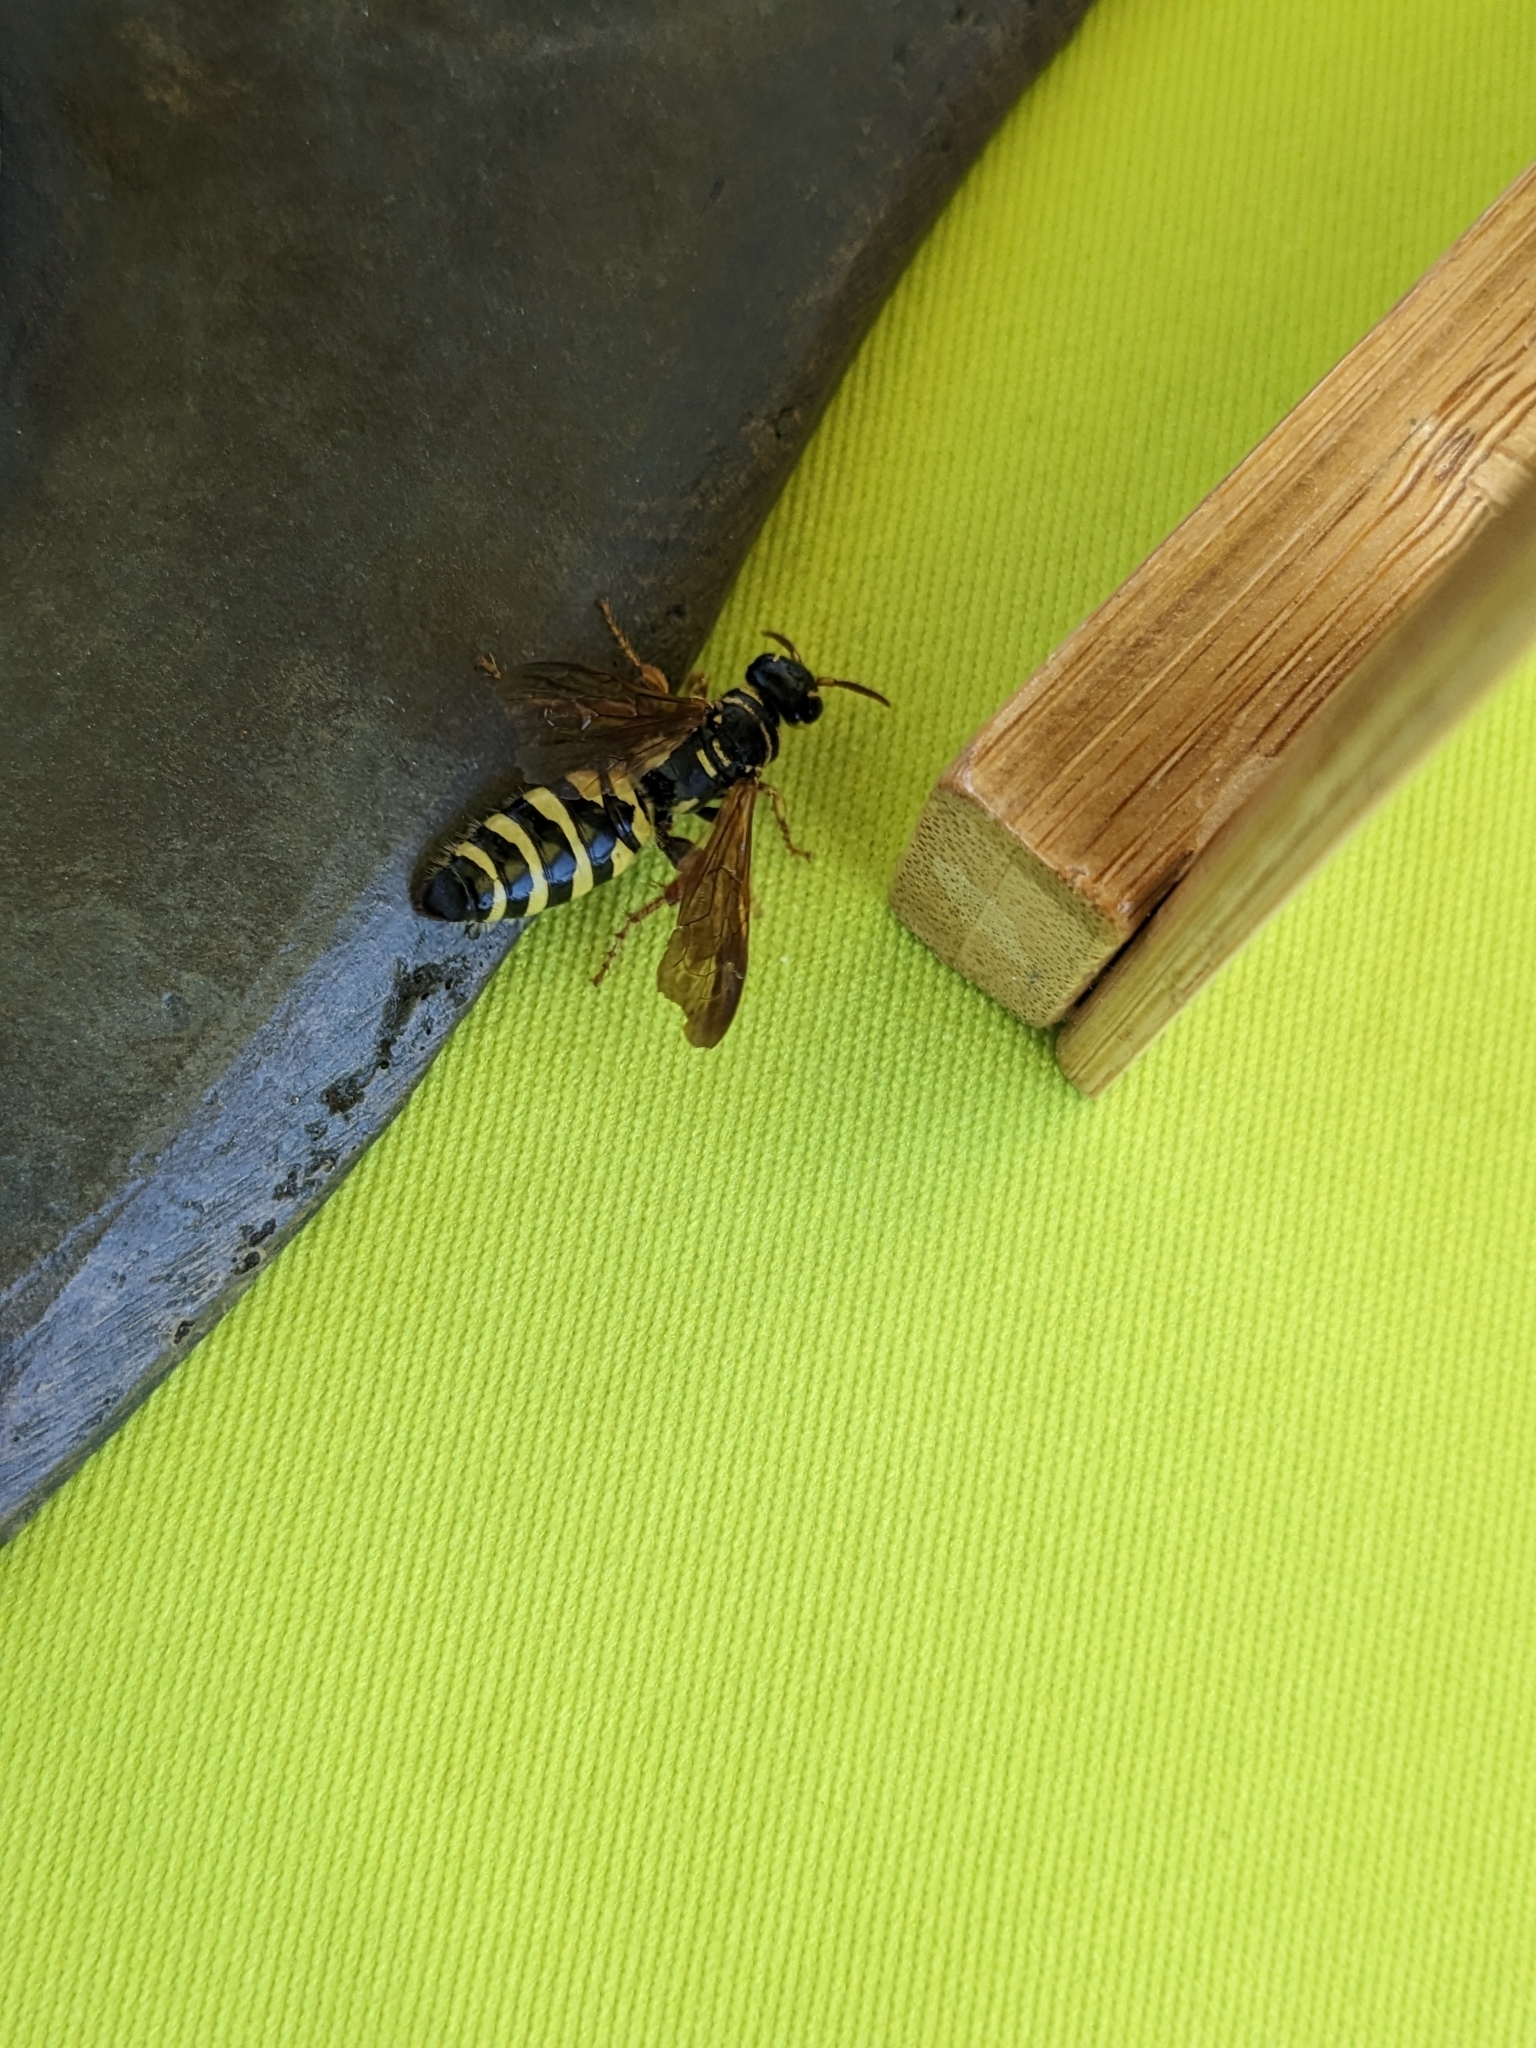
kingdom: Animalia
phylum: Arthropoda
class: Insecta
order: Hymenoptera
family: Tiphiidae
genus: Myzinum
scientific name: Myzinum quinquecinctum
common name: Five-banded thynnid wasp
